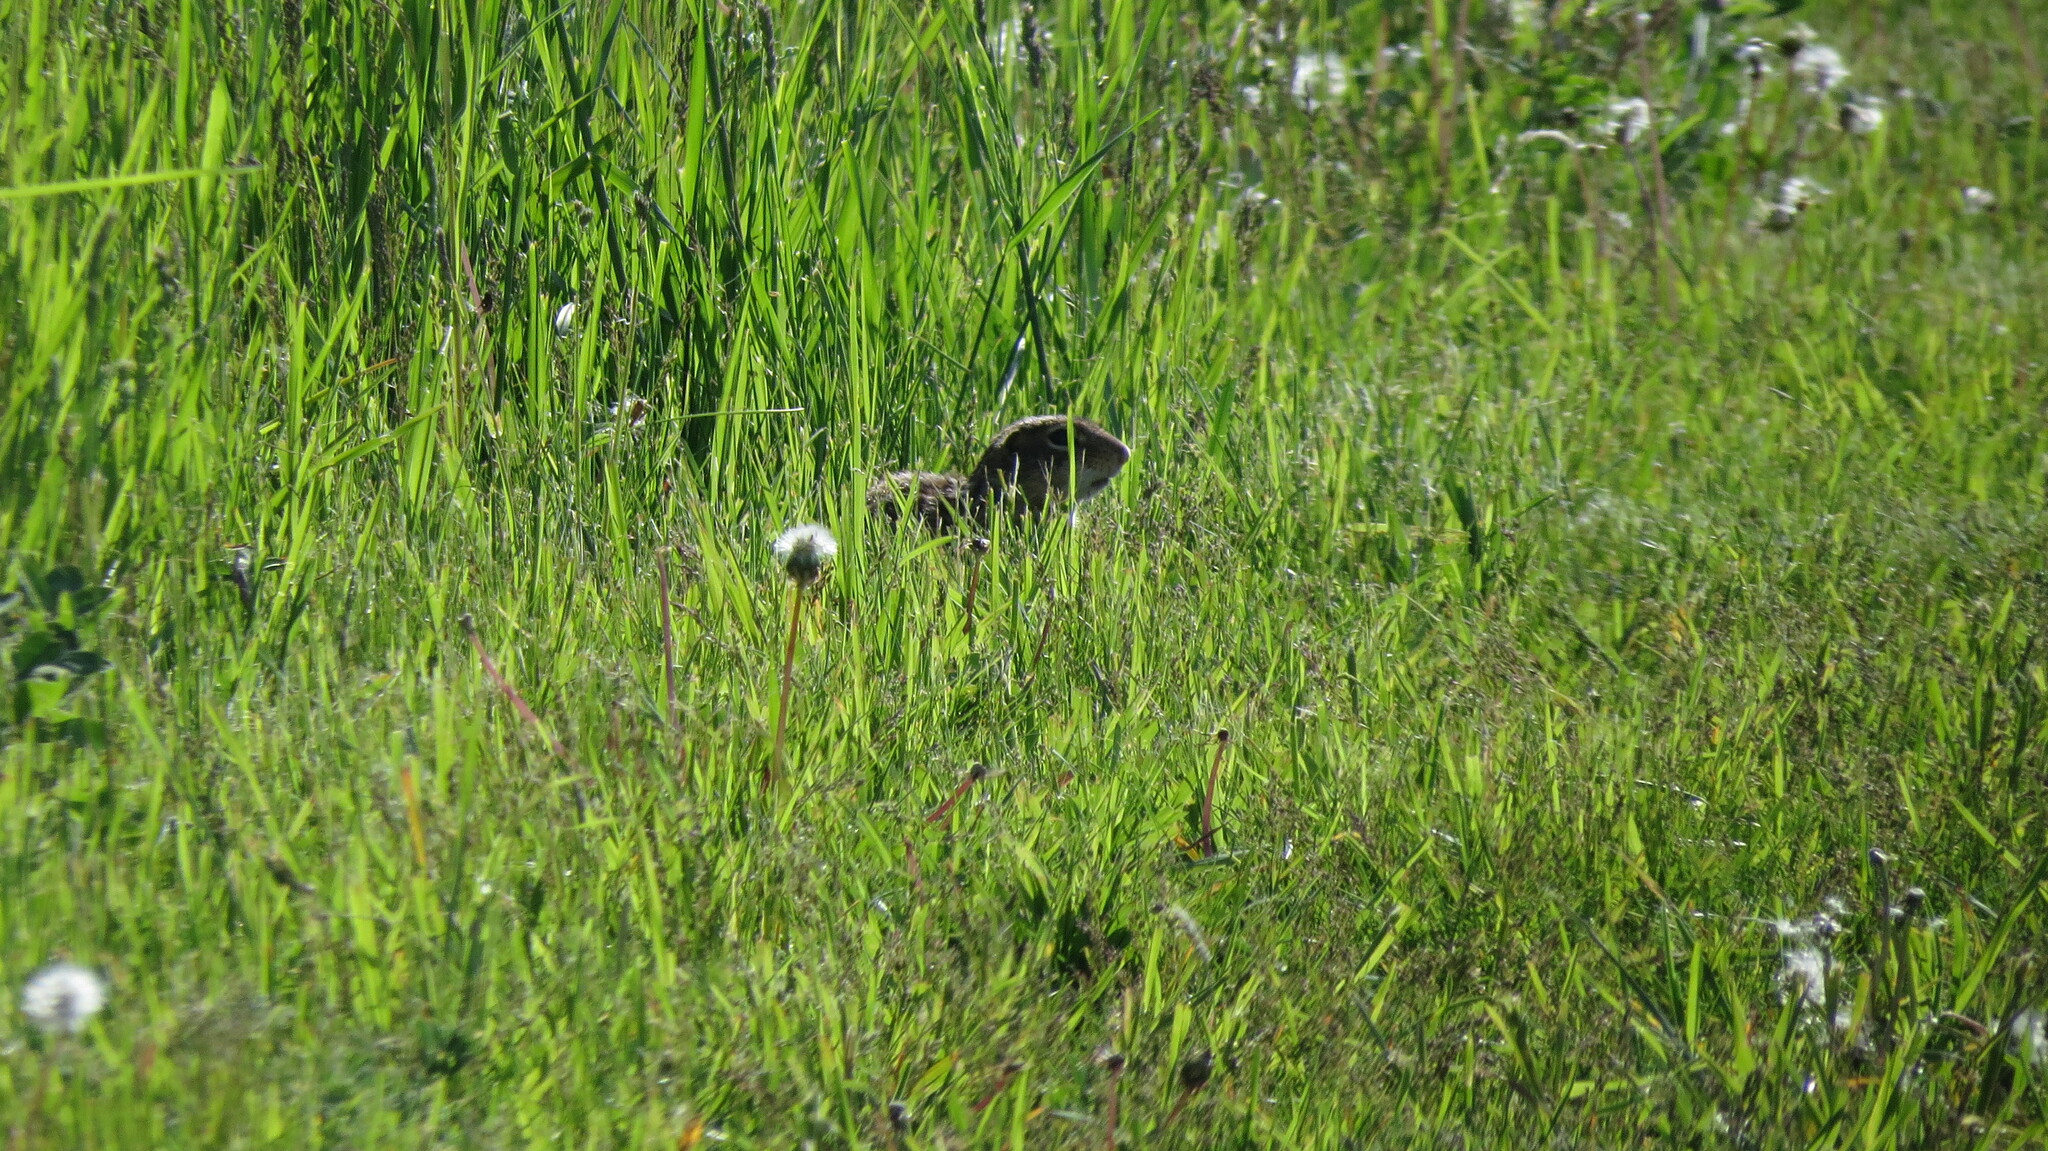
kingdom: Animalia
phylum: Chordata
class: Mammalia
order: Rodentia
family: Sciuridae
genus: Ictidomys
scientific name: Ictidomys tridecemlineatus
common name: Thirteen-lined ground squirrel
